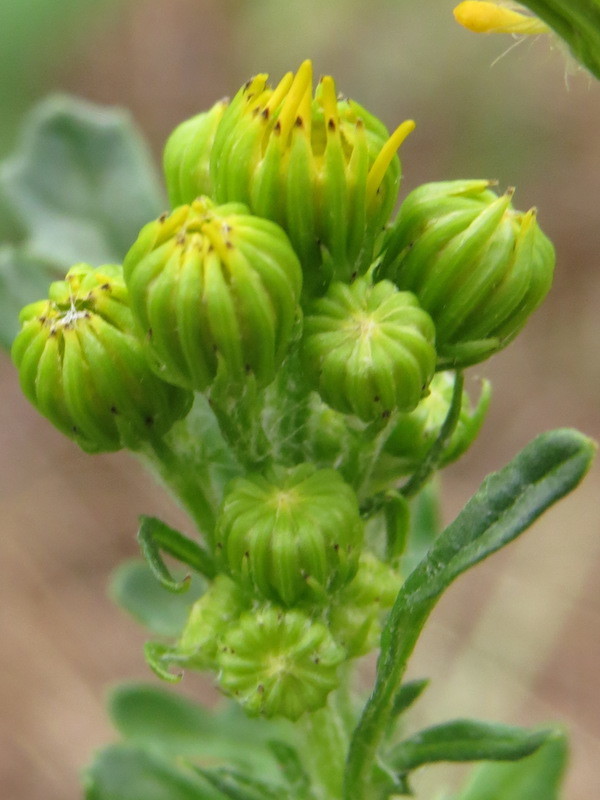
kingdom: Plantae
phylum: Tracheophyta
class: Magnoliopsida
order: Asterales
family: Asteraceae
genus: Jacobaea
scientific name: Jacobaea vulgaris
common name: Stinking willie
